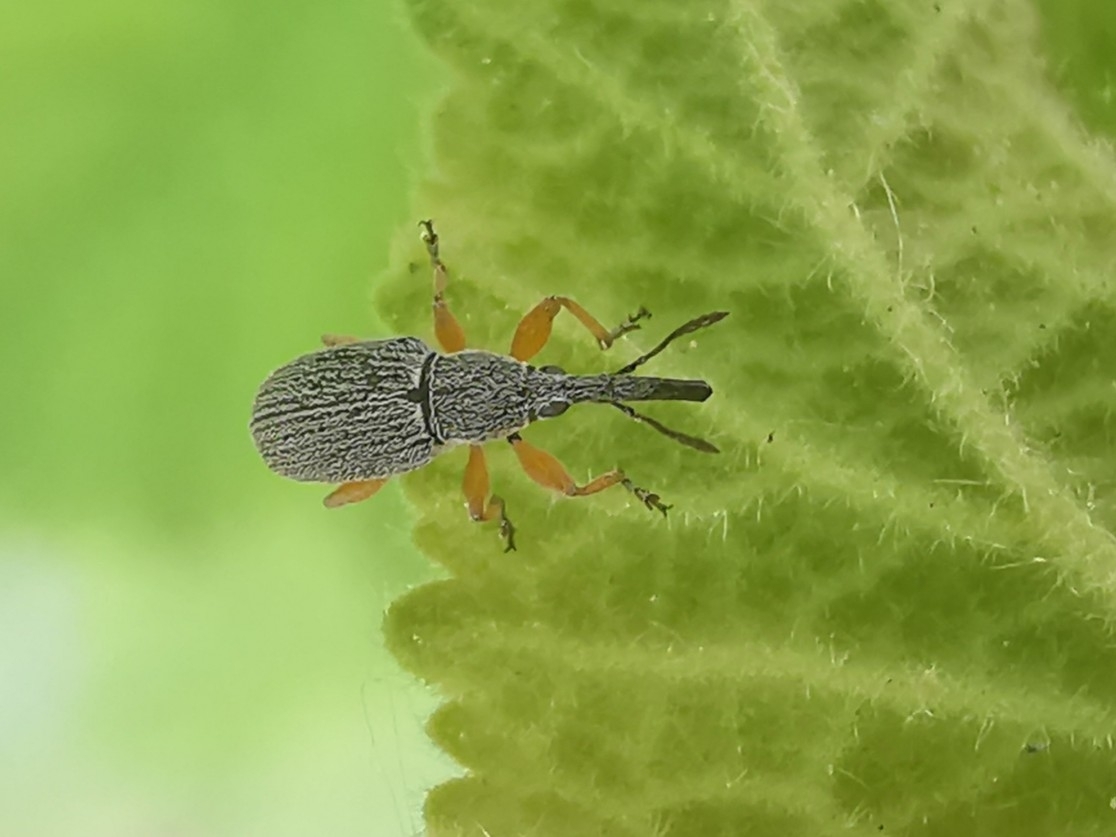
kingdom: Animalia
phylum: Arthropoda
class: Insecta
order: Coleoptera
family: Brentidae
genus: Rhopalapion
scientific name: Rhopalapion longirostre
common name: Hollyhock weevil
